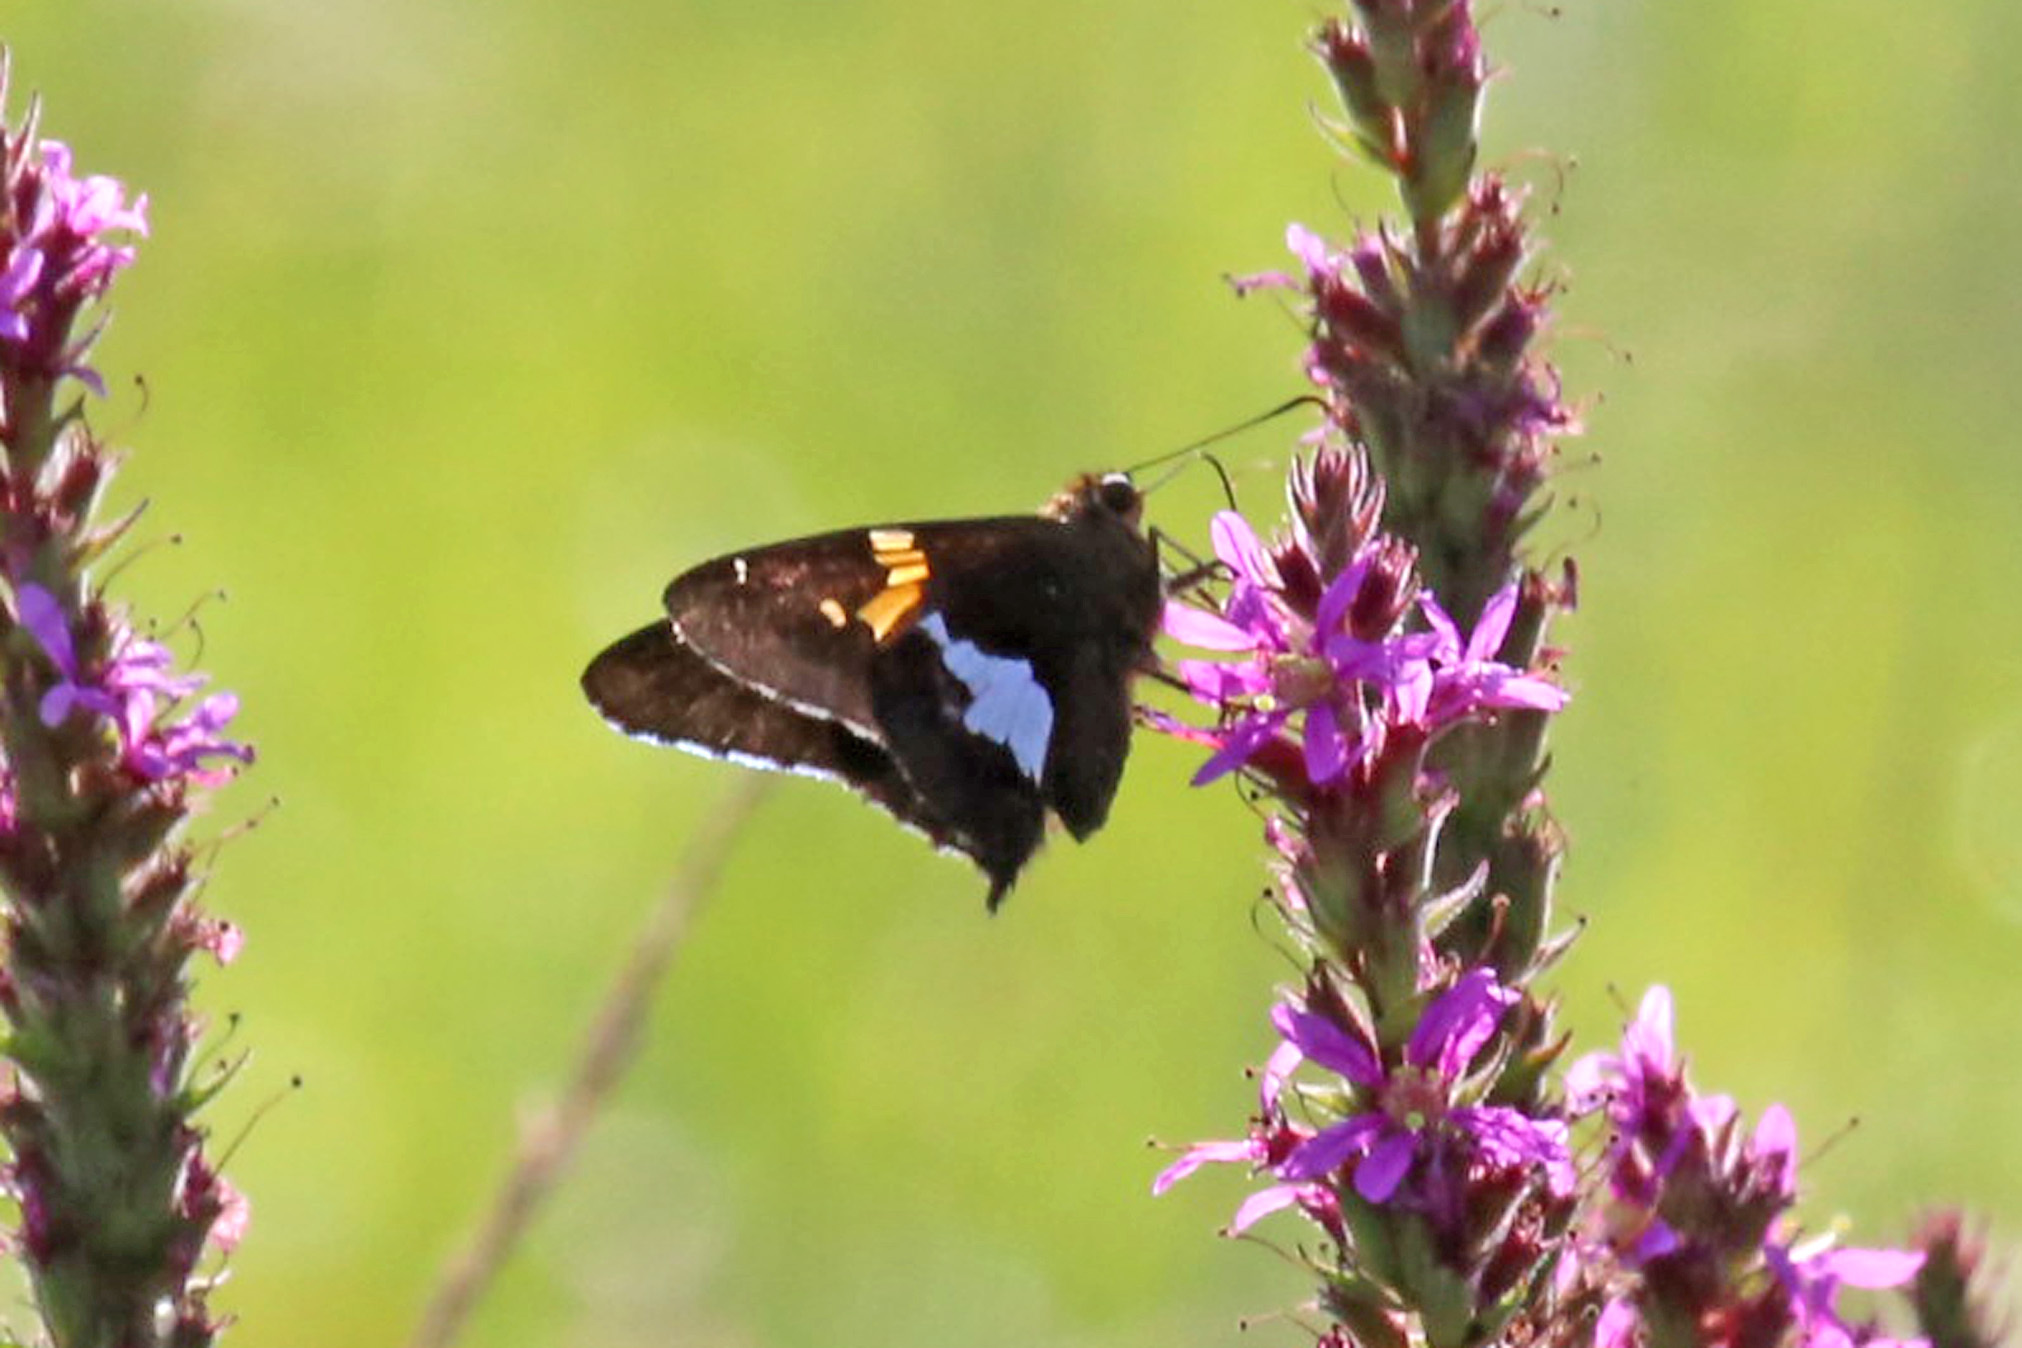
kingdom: Animalia
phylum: Arthropoda
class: Insecta
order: Lepidoptera
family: Hesperiidae
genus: Epargyreus
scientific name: Epargyreus clarus
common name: Silver-spotted skipper
